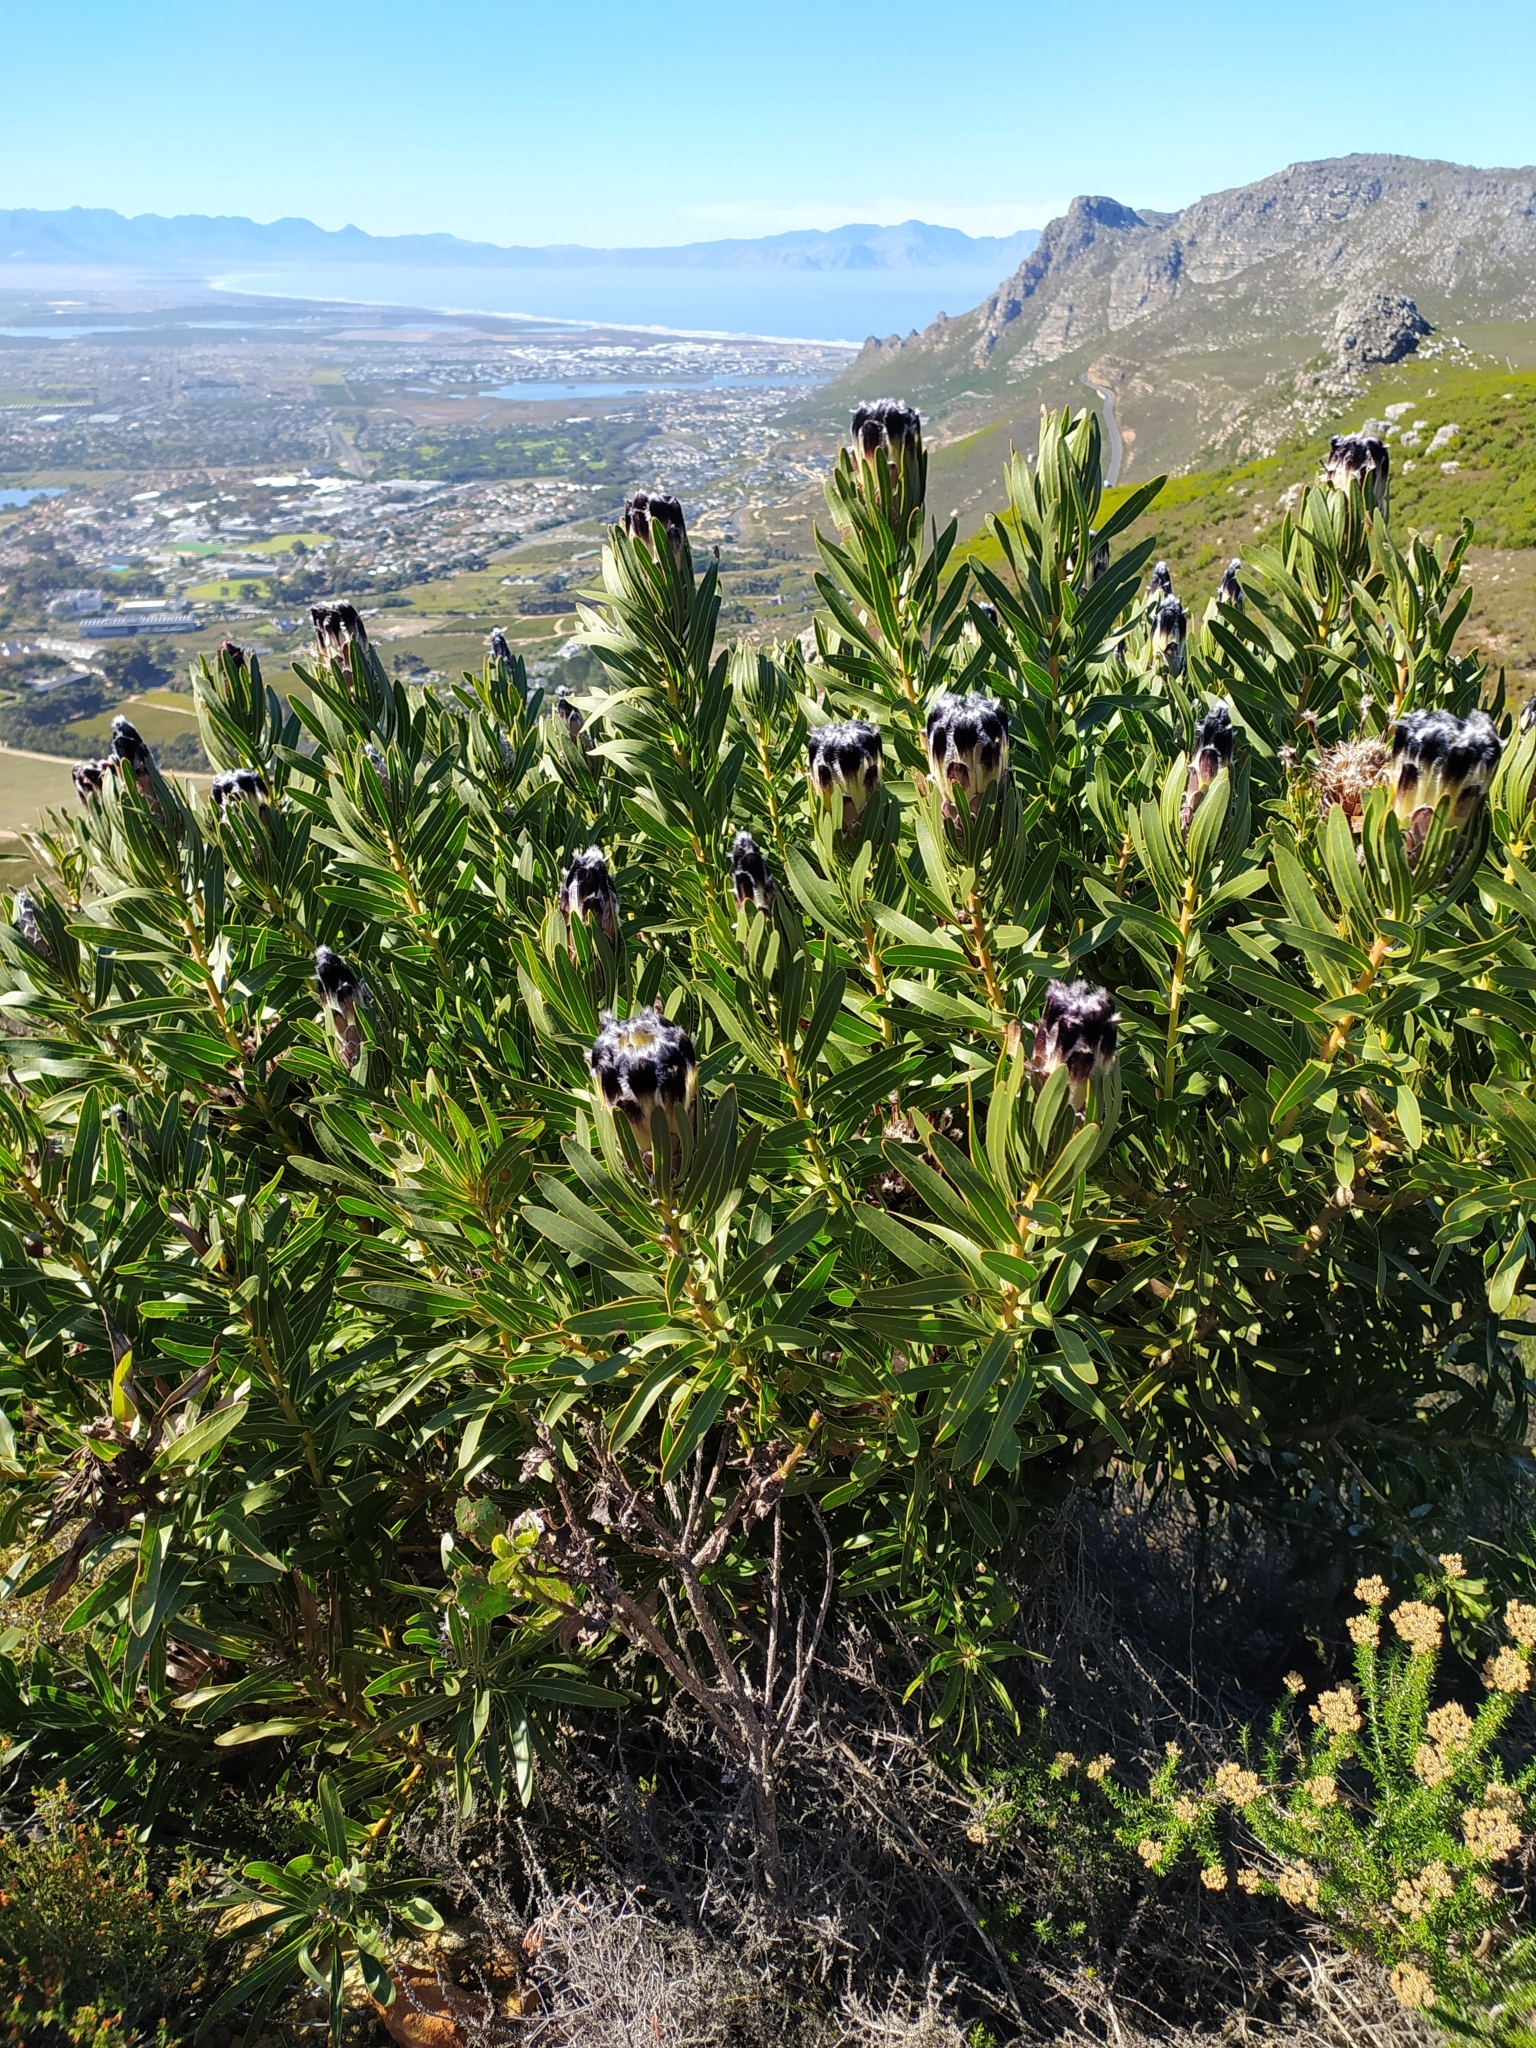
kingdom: Plantae
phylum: Tracheophyta
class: Magnoliopsida
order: Proteales
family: Proteaceae
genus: Protea
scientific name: Protea lepidocarpodendron
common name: Black-bearded protea
